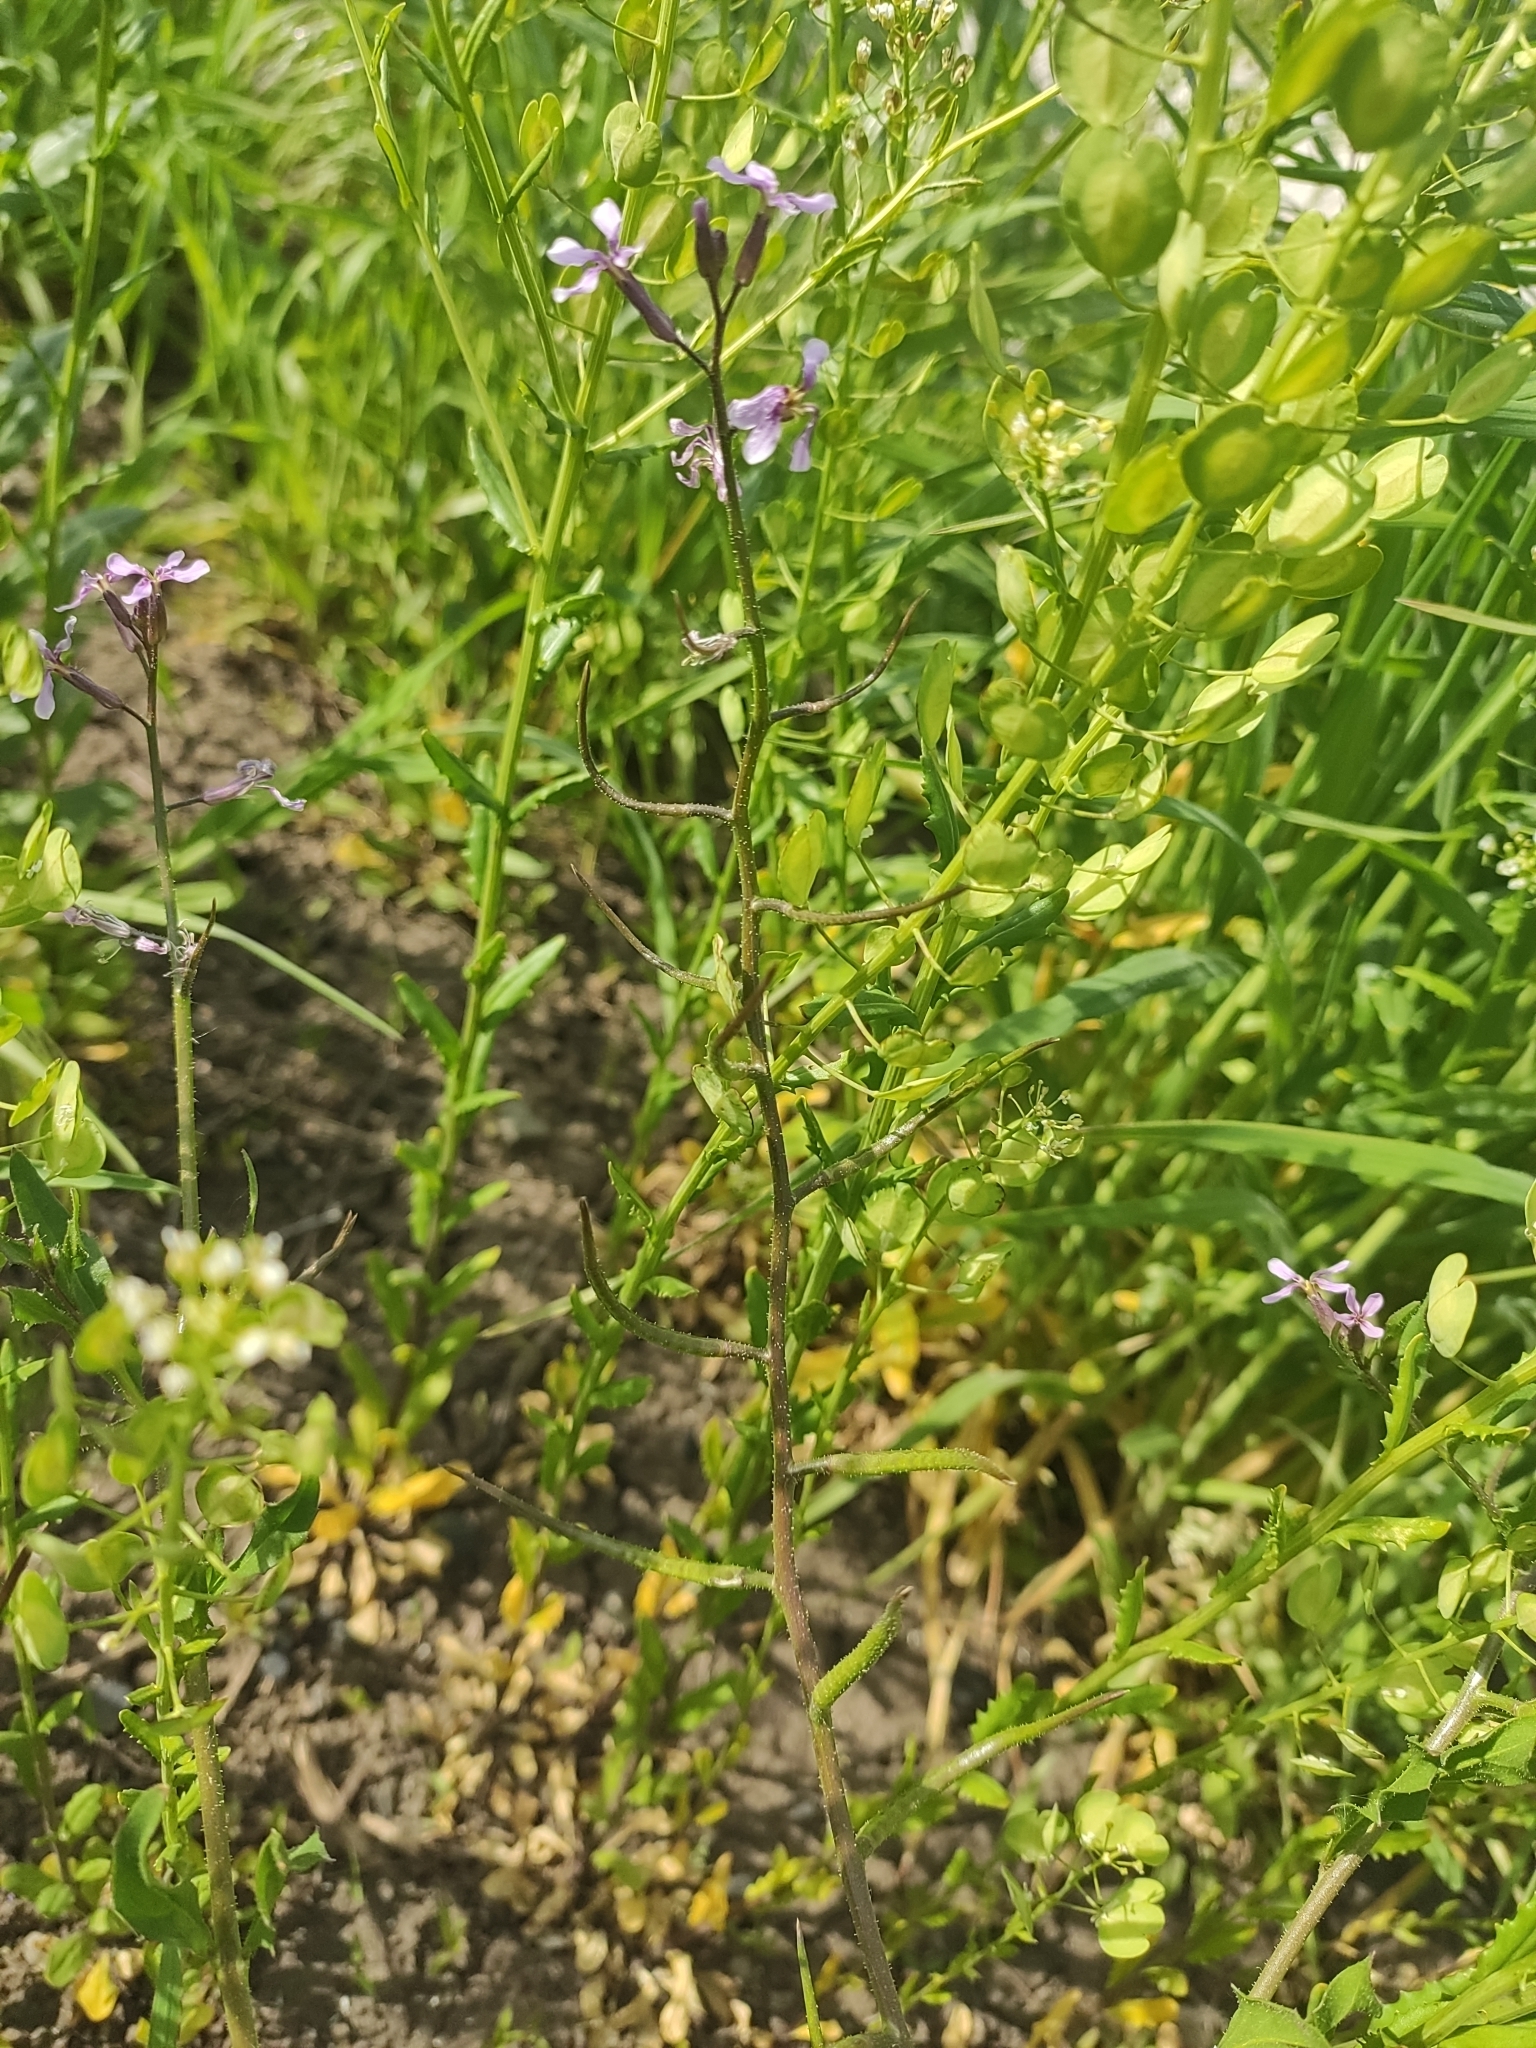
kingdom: Plantae
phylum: Tracheophyta
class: Magnoliopsida
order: Brassicales
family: Brassicaceae
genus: Chorispora
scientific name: Chorispora tenella
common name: Crossflower
